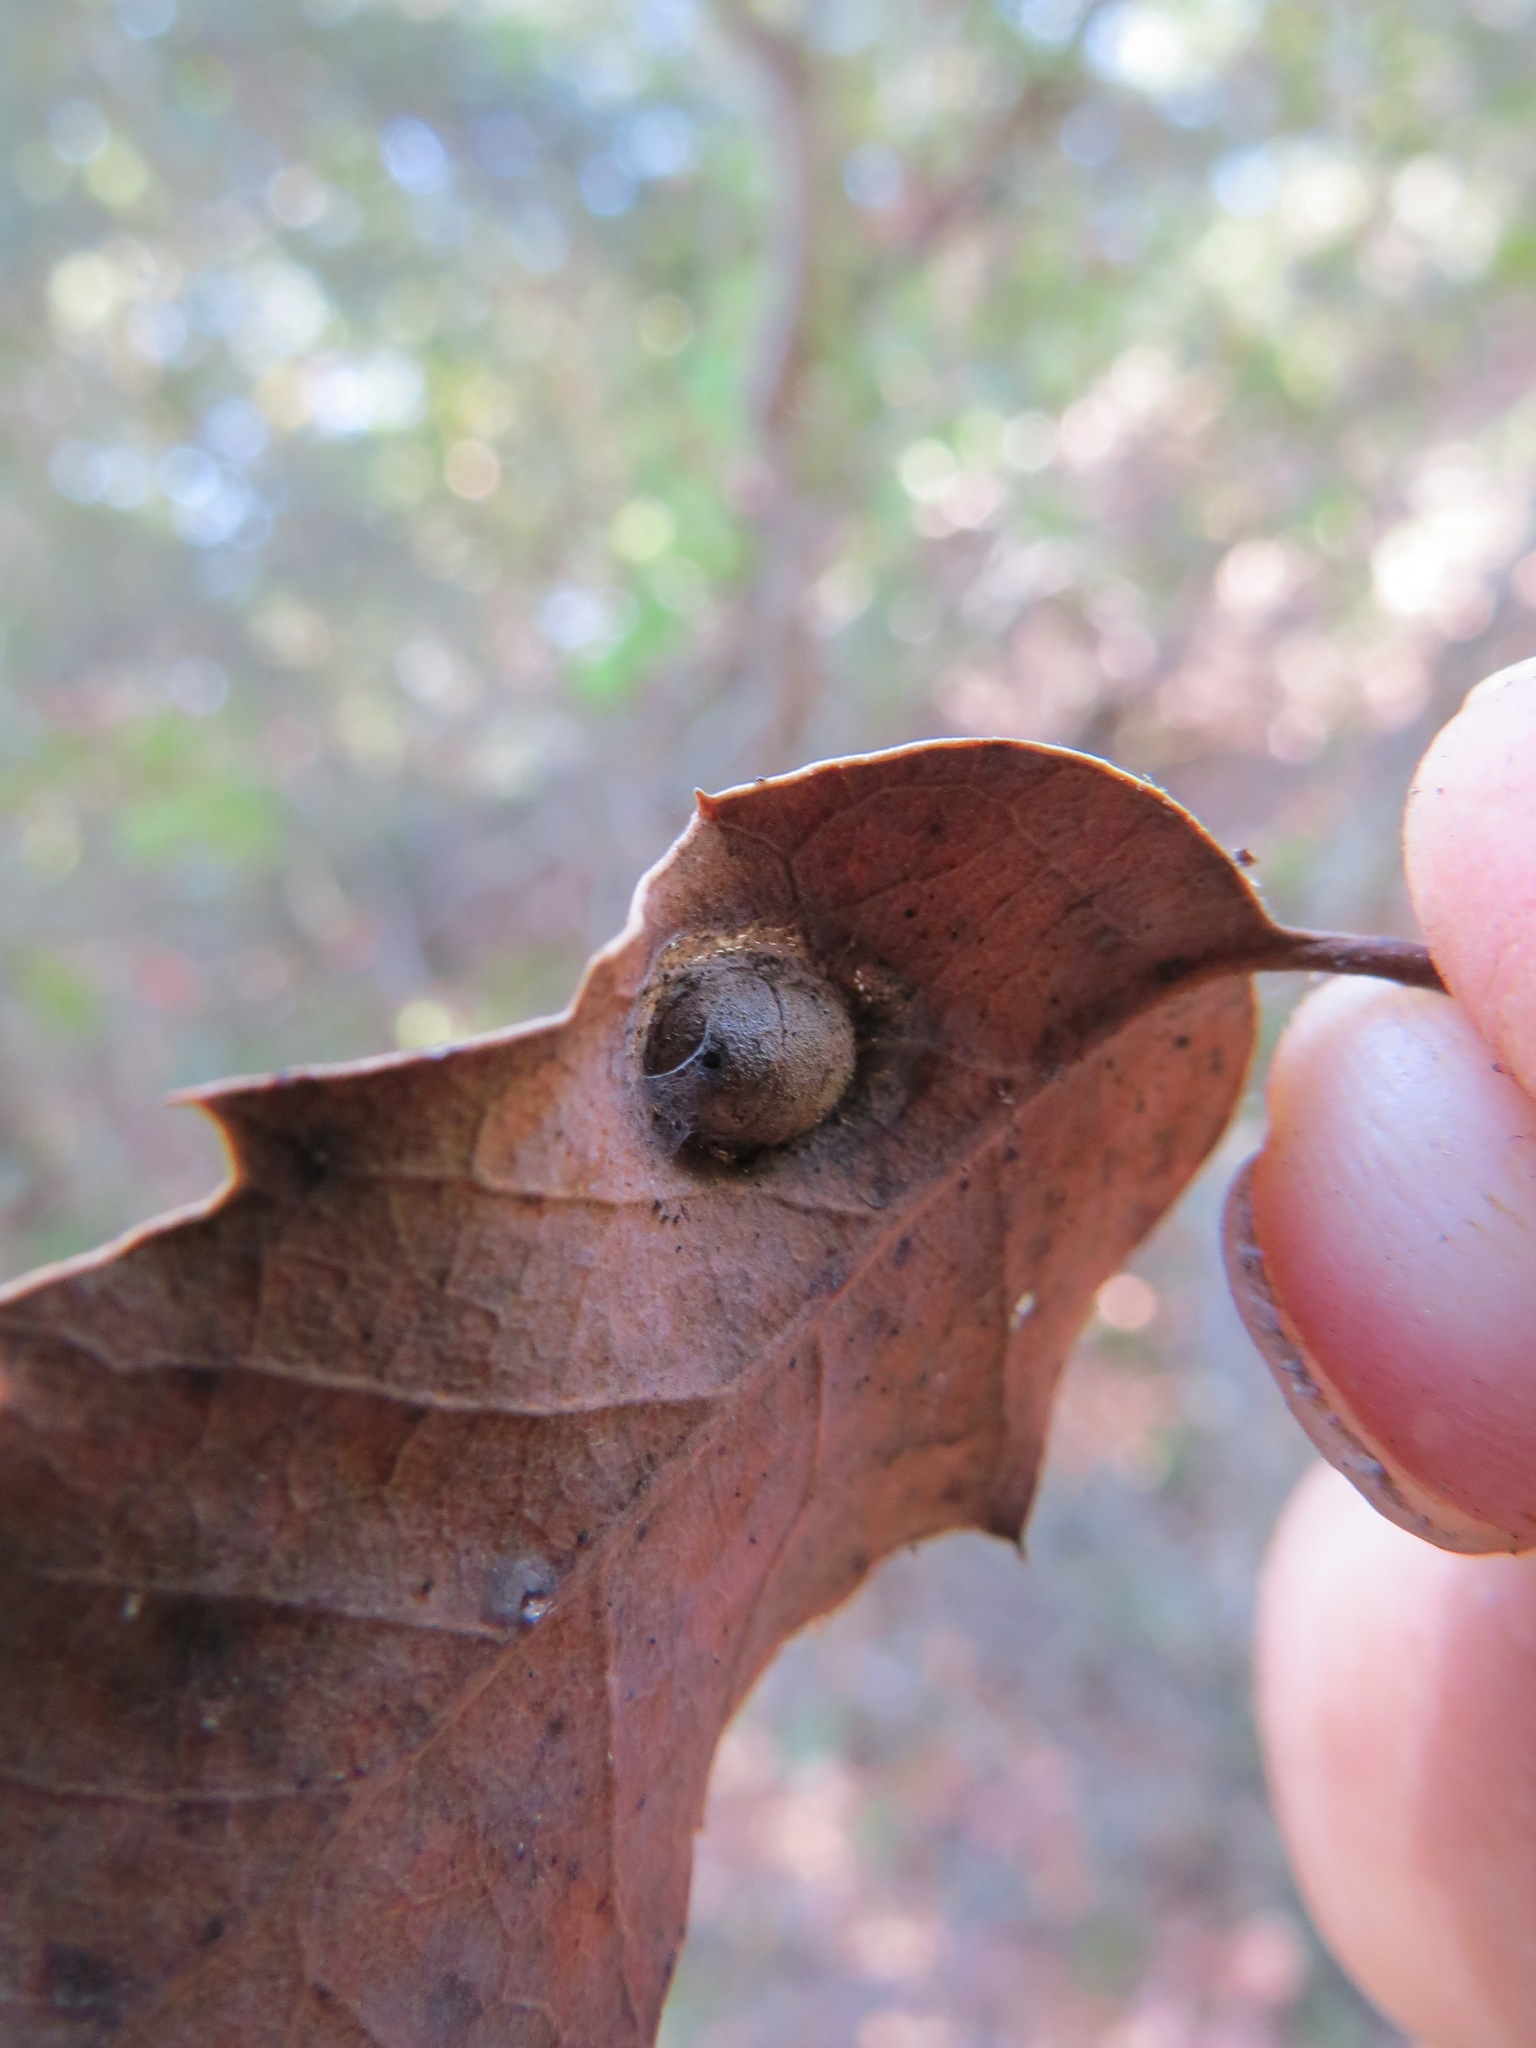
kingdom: Animalia
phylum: Arthropoda
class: Insecta
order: Hymenoptera
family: Cynipidae
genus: Heteroecus
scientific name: Heteroecus
